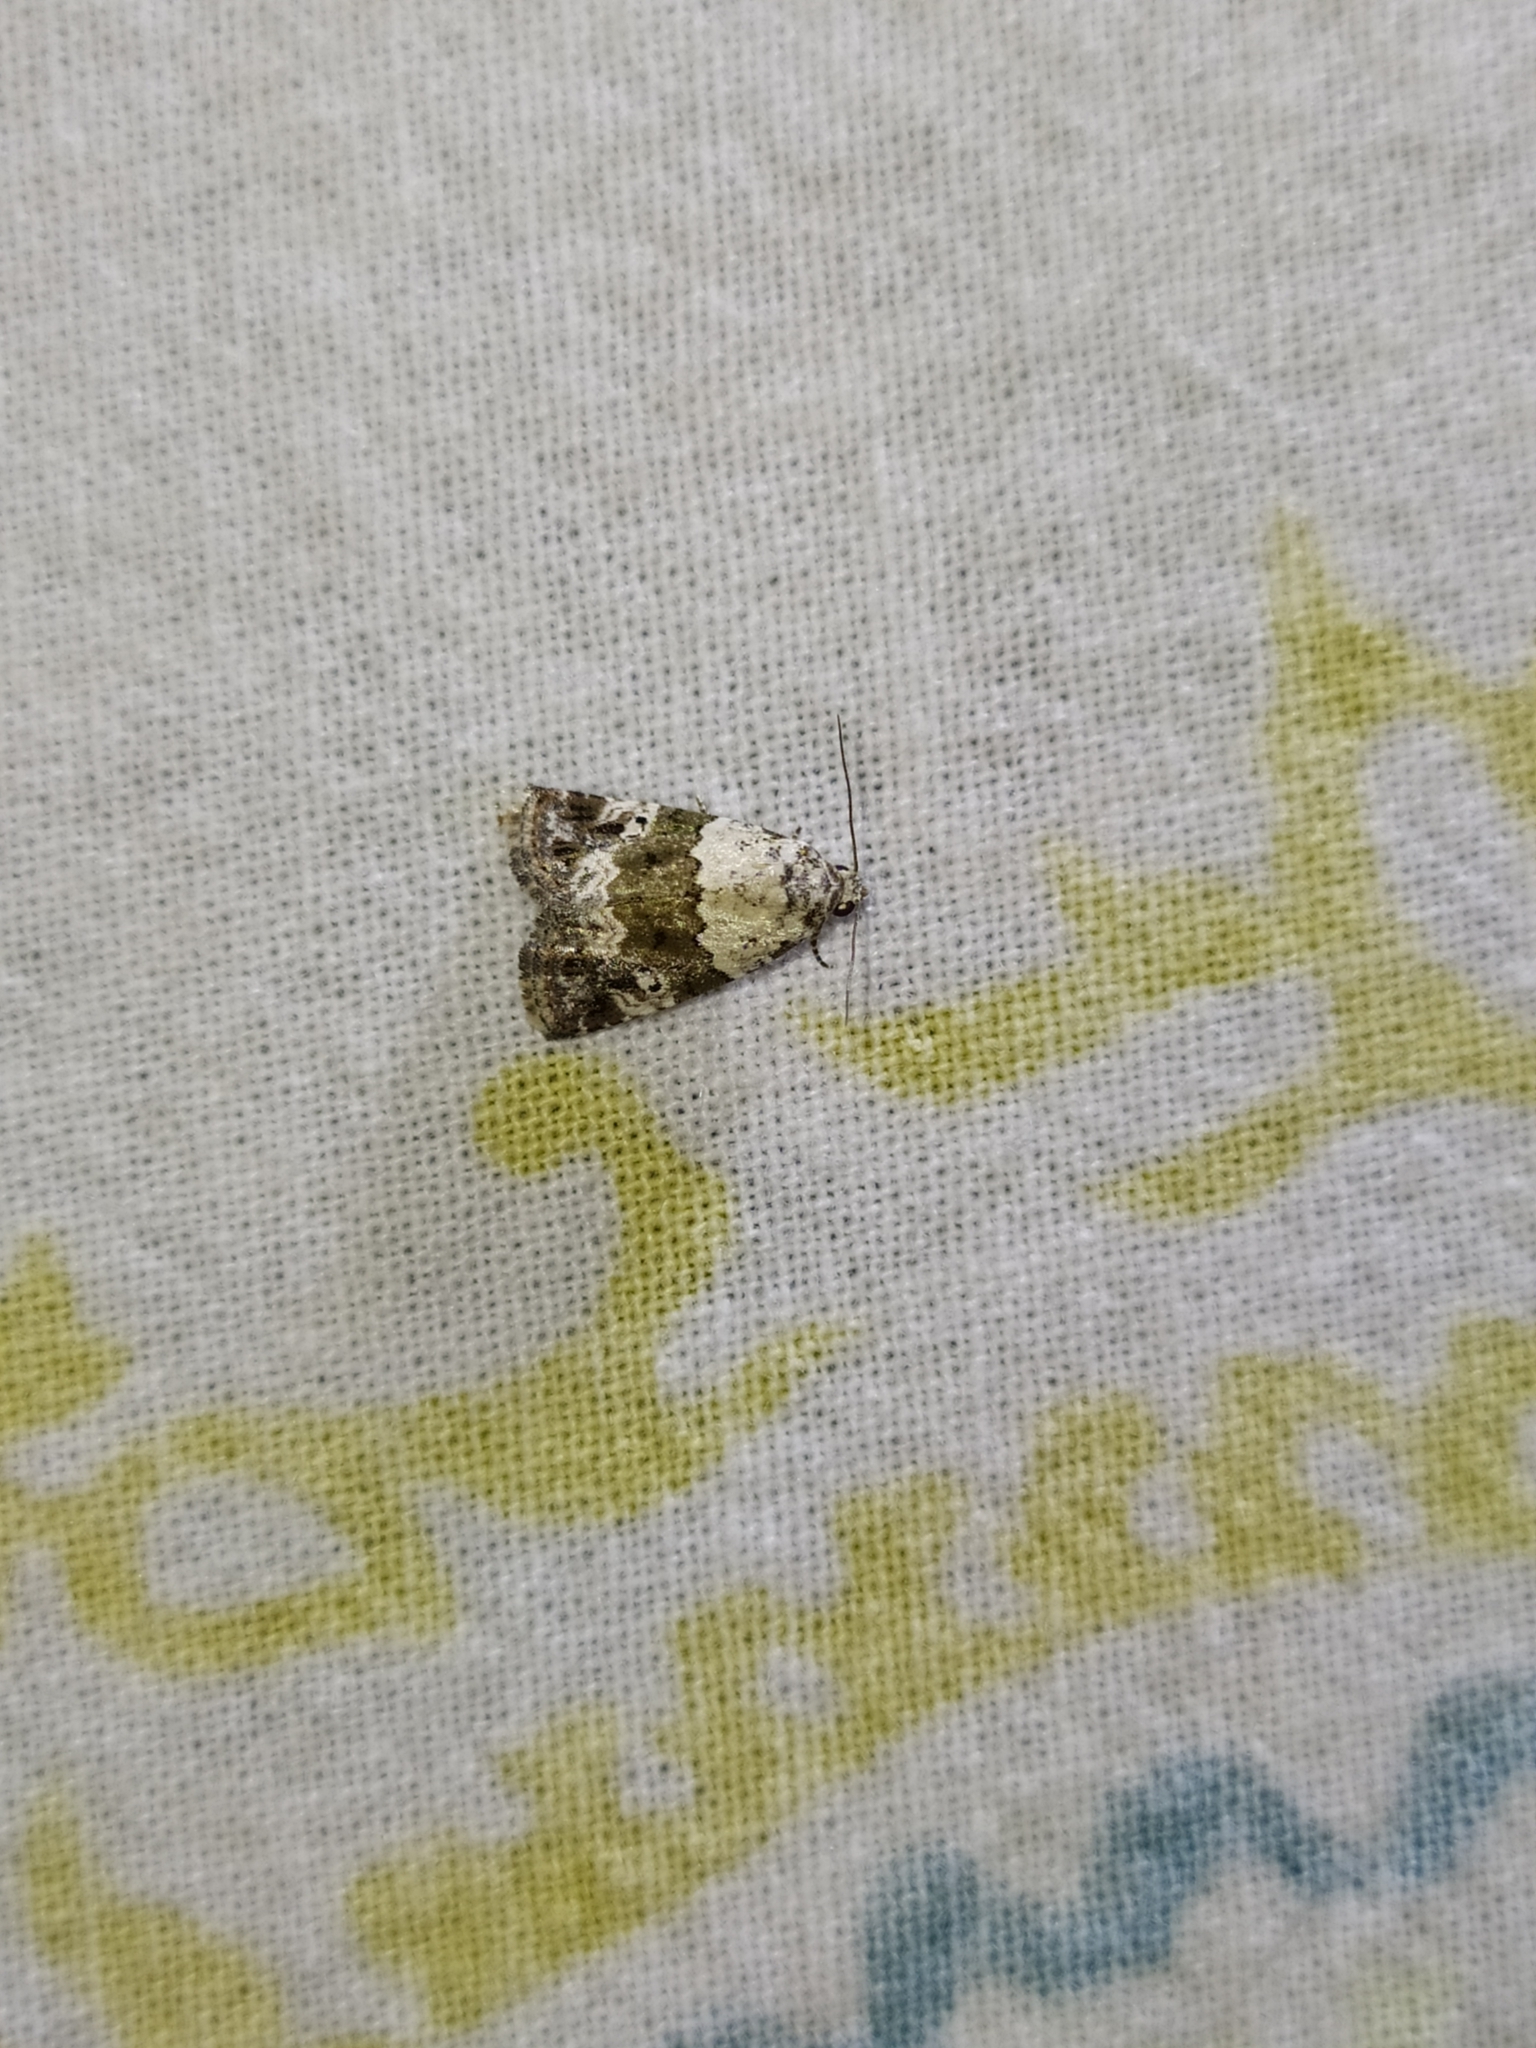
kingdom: Animalia
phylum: Arthropoda
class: Insecta
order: Lepidoptera
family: Noctuidae
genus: Maliattha
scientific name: Maliattha signifera
